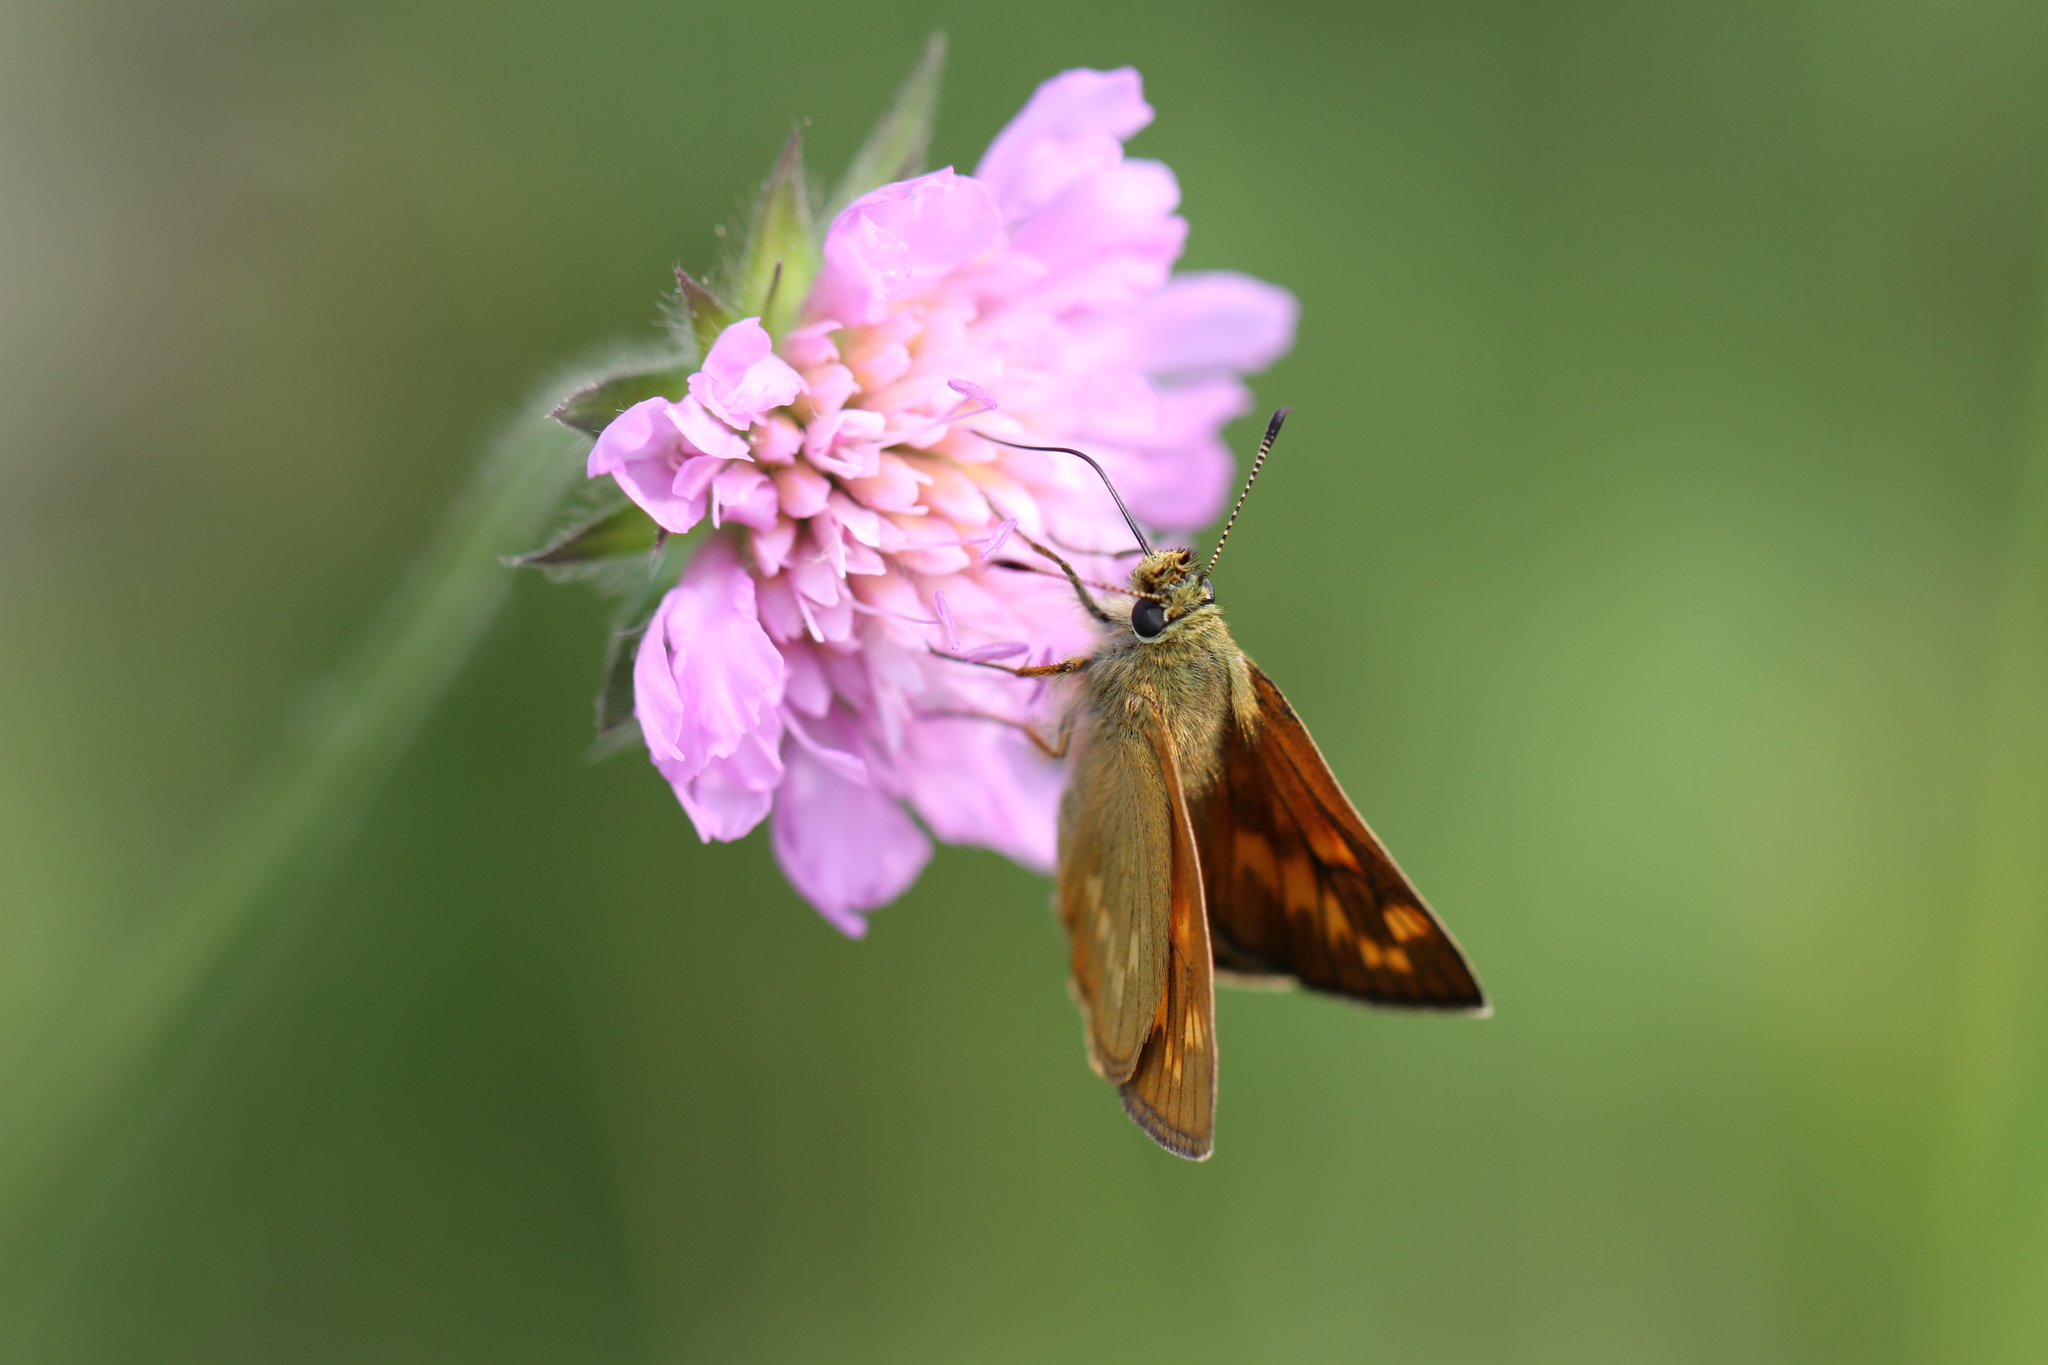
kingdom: Animalia
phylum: Arthropoda
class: Insecta
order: Lepidoptera
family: Hesperiidae
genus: Ochlodes
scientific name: Ochlodes venata
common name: Large skipper
